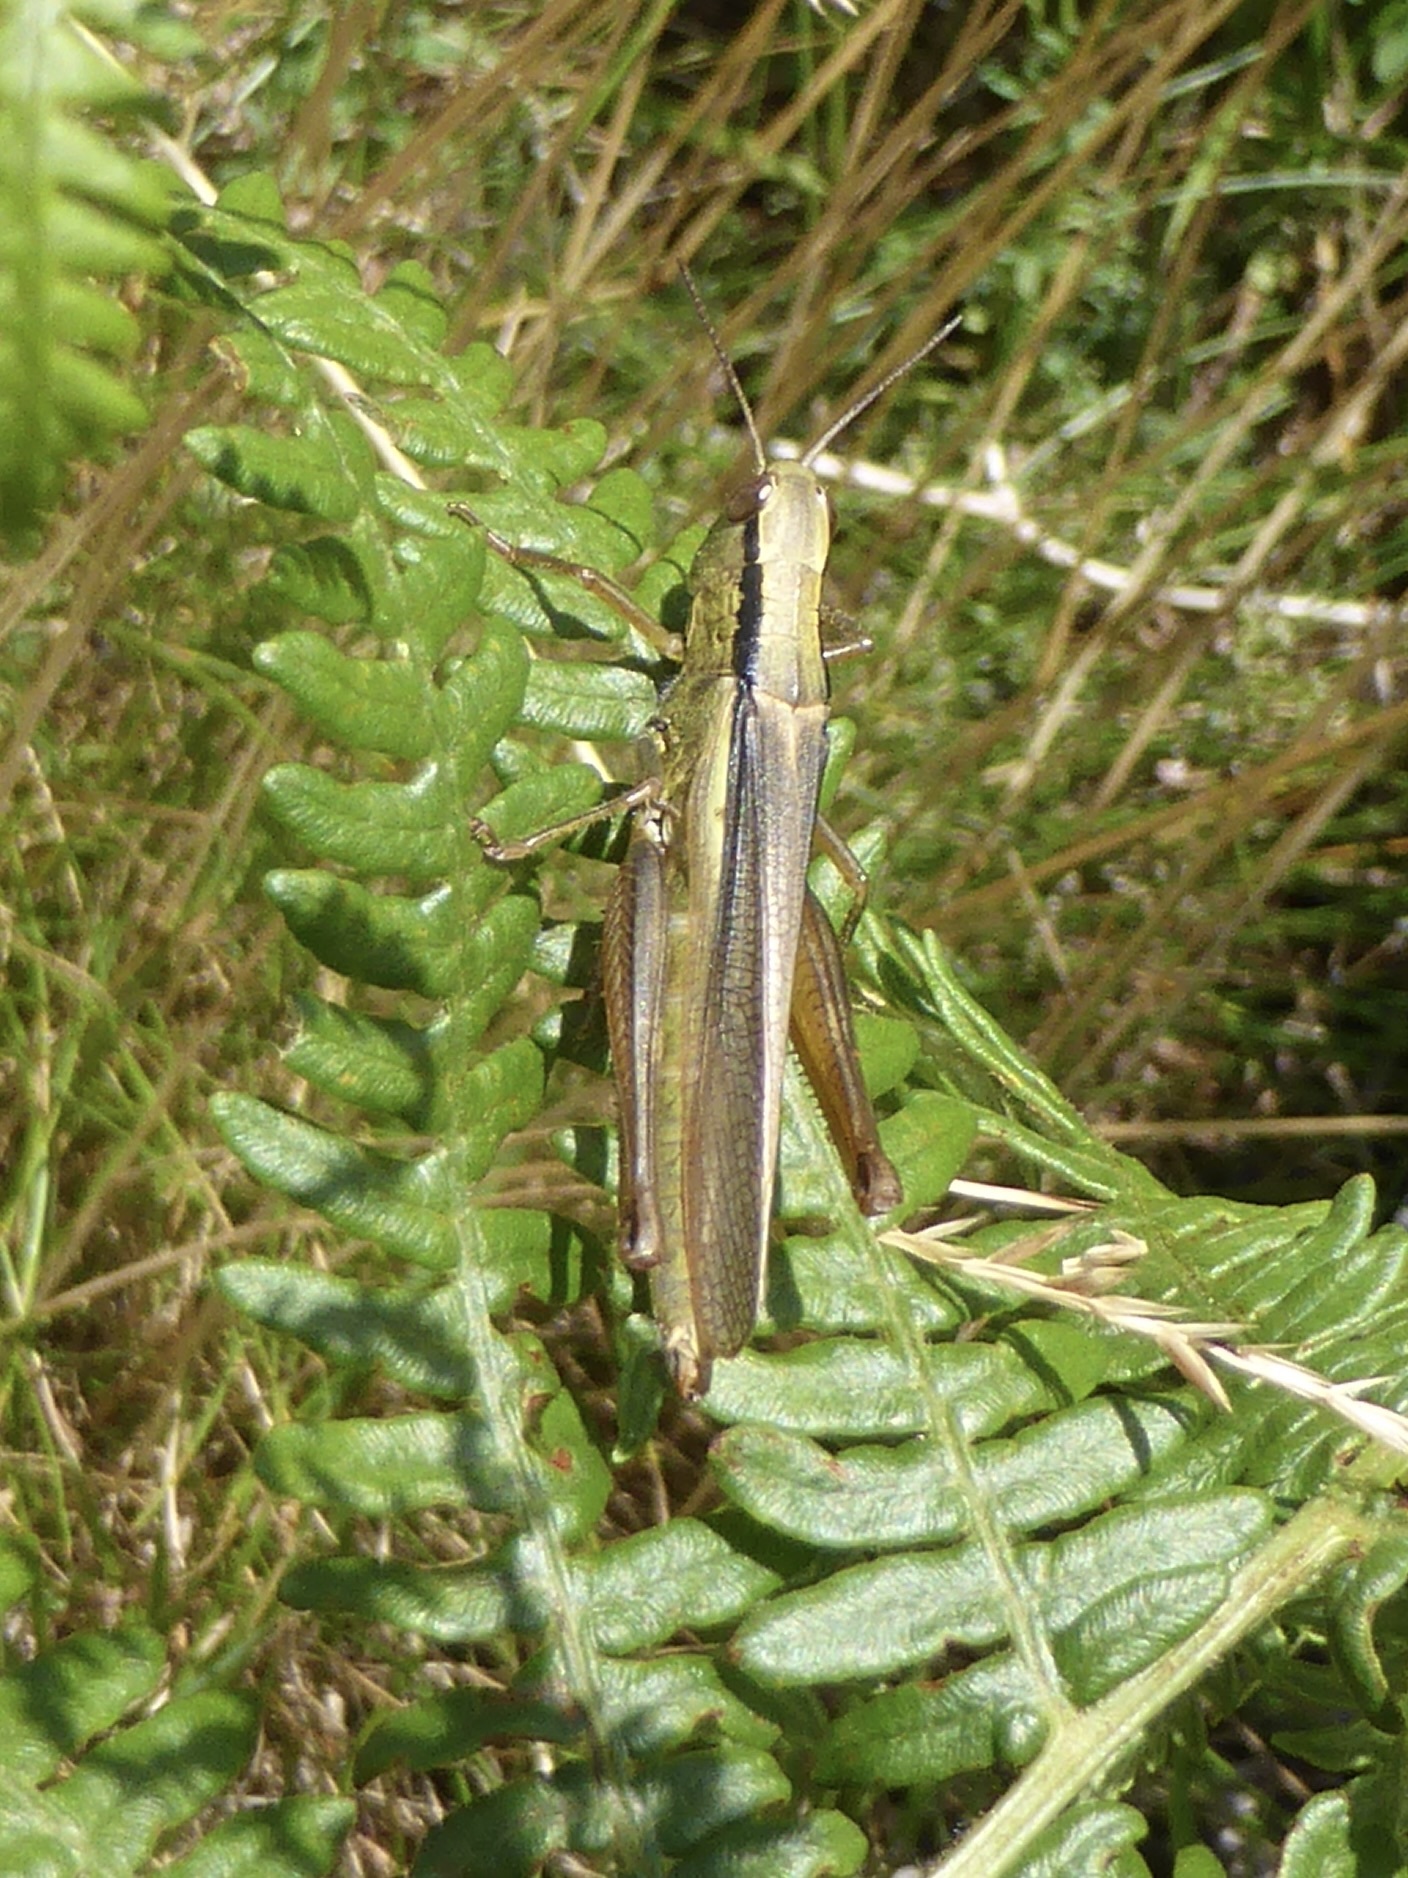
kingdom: Animalia
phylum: Arthropoda
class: Insecta
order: Orthoptera
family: Acrididae
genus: Mecostethus
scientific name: Mecostethus parapleurus
